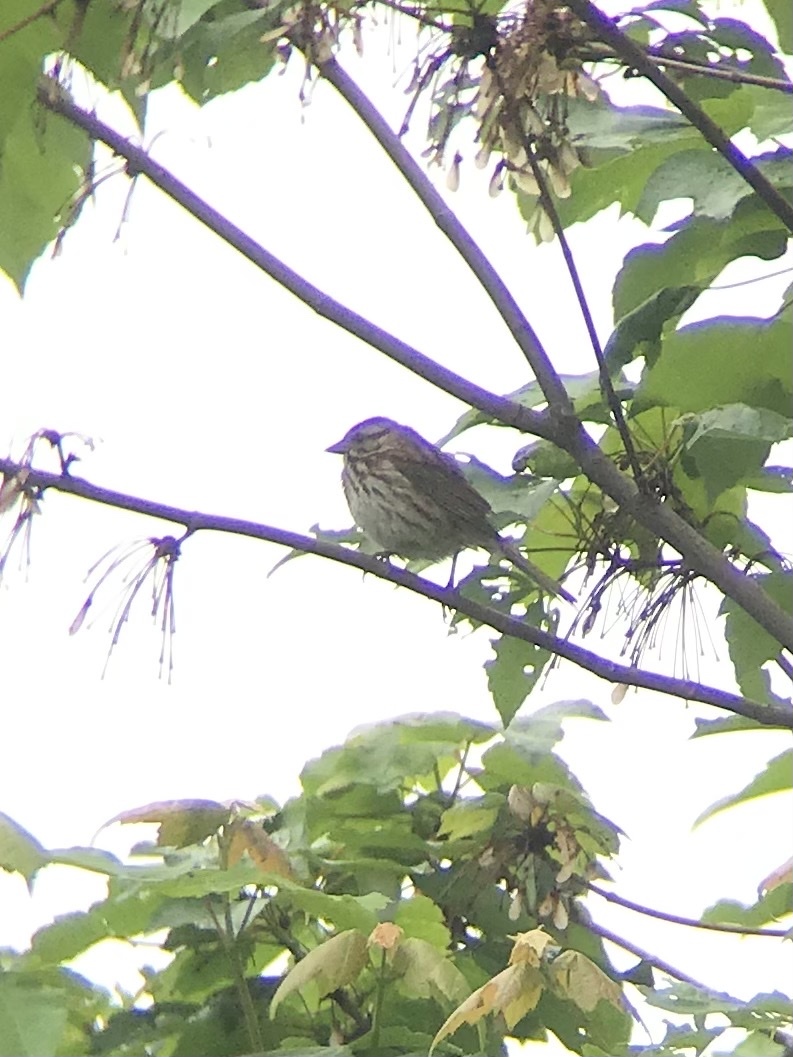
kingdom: Animalia
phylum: Chordata
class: Aves
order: Passeriformes
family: Passerellidae
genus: Melospiza
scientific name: Melospiza melodia
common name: Song sparrow
